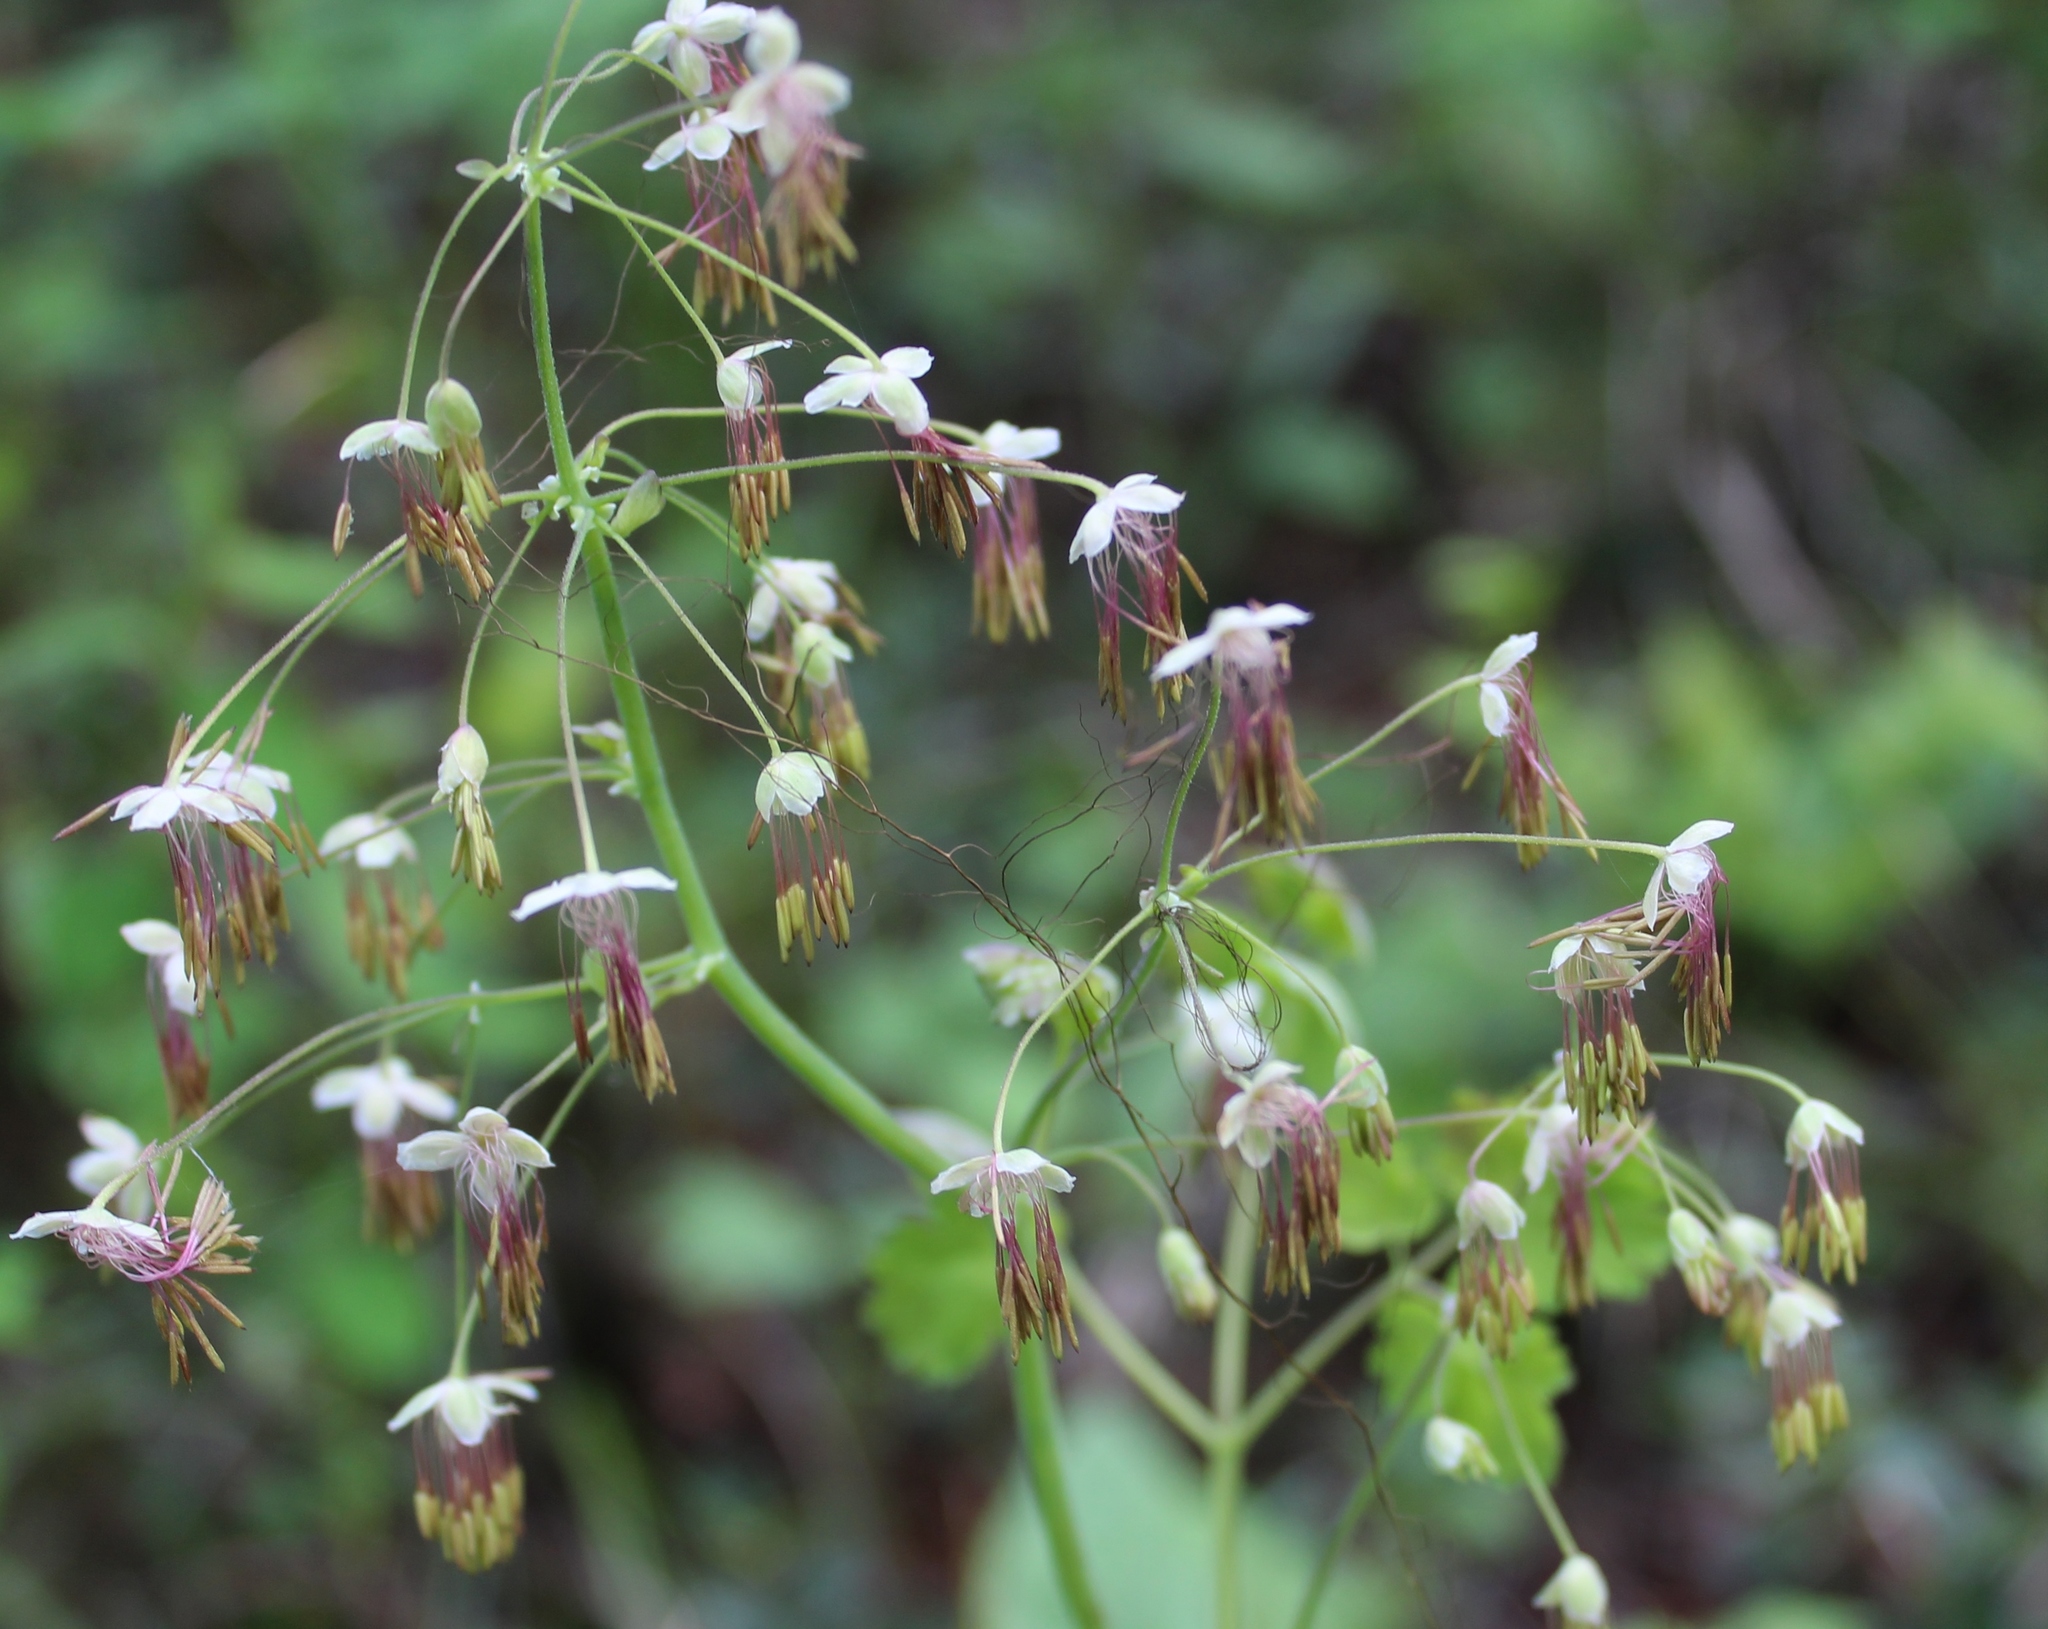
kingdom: Plantae
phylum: Tracheophyta
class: Magnoliopsida
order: Ranunculales
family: Ranunculaceae
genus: Thalictrum
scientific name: Thalictrum occidentale
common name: Western meadow-rue
